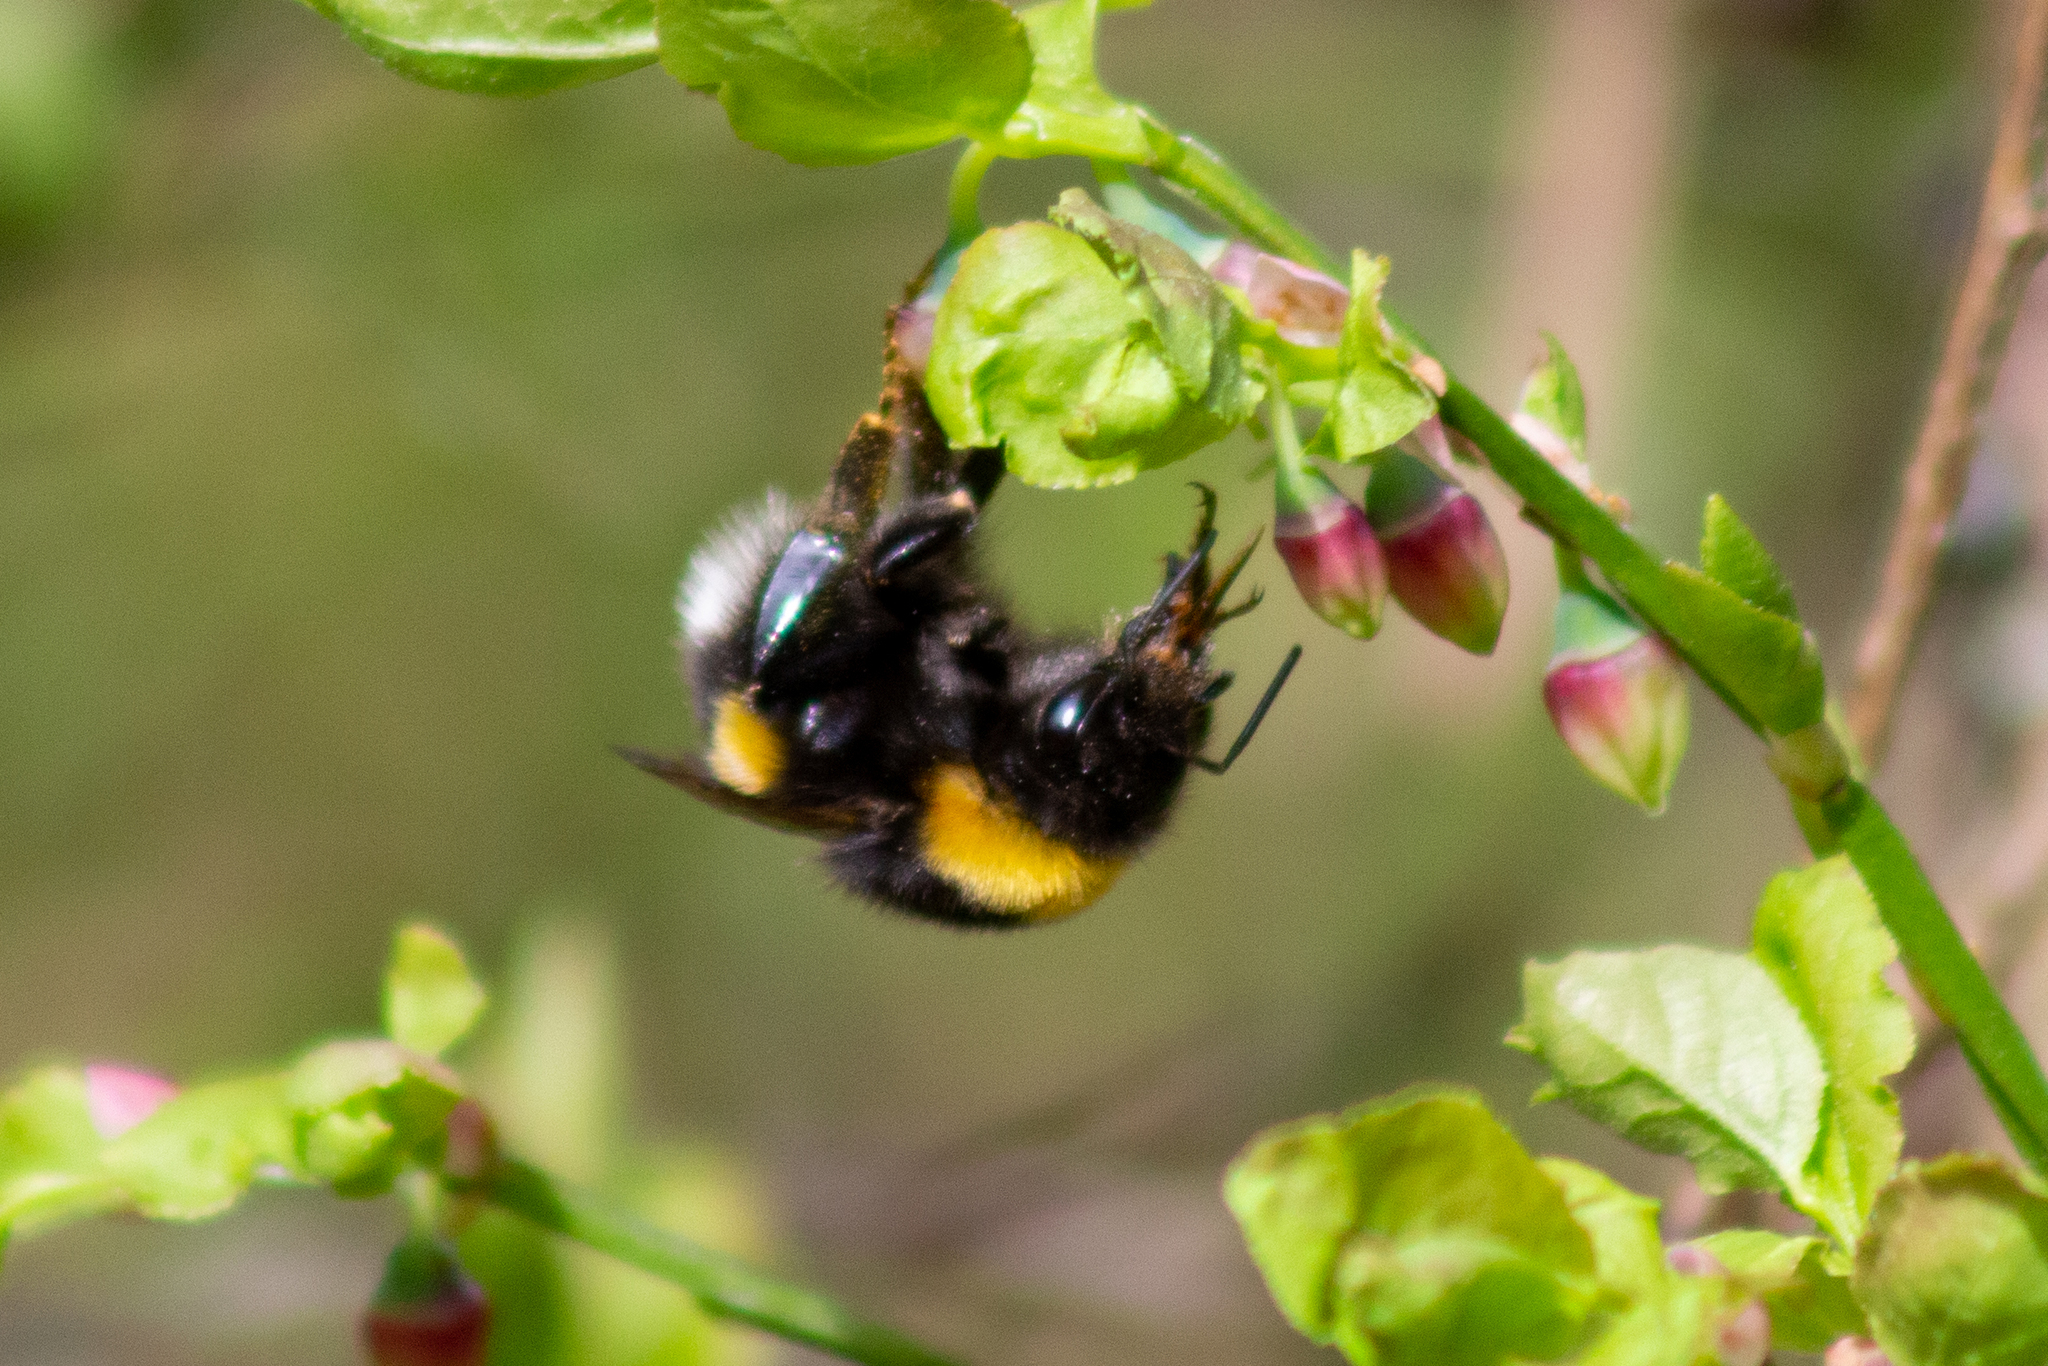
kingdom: Animalia
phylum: Arthropoda
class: Insecta
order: Hymenoptera
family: Apidae
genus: Bombus
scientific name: Bombus
